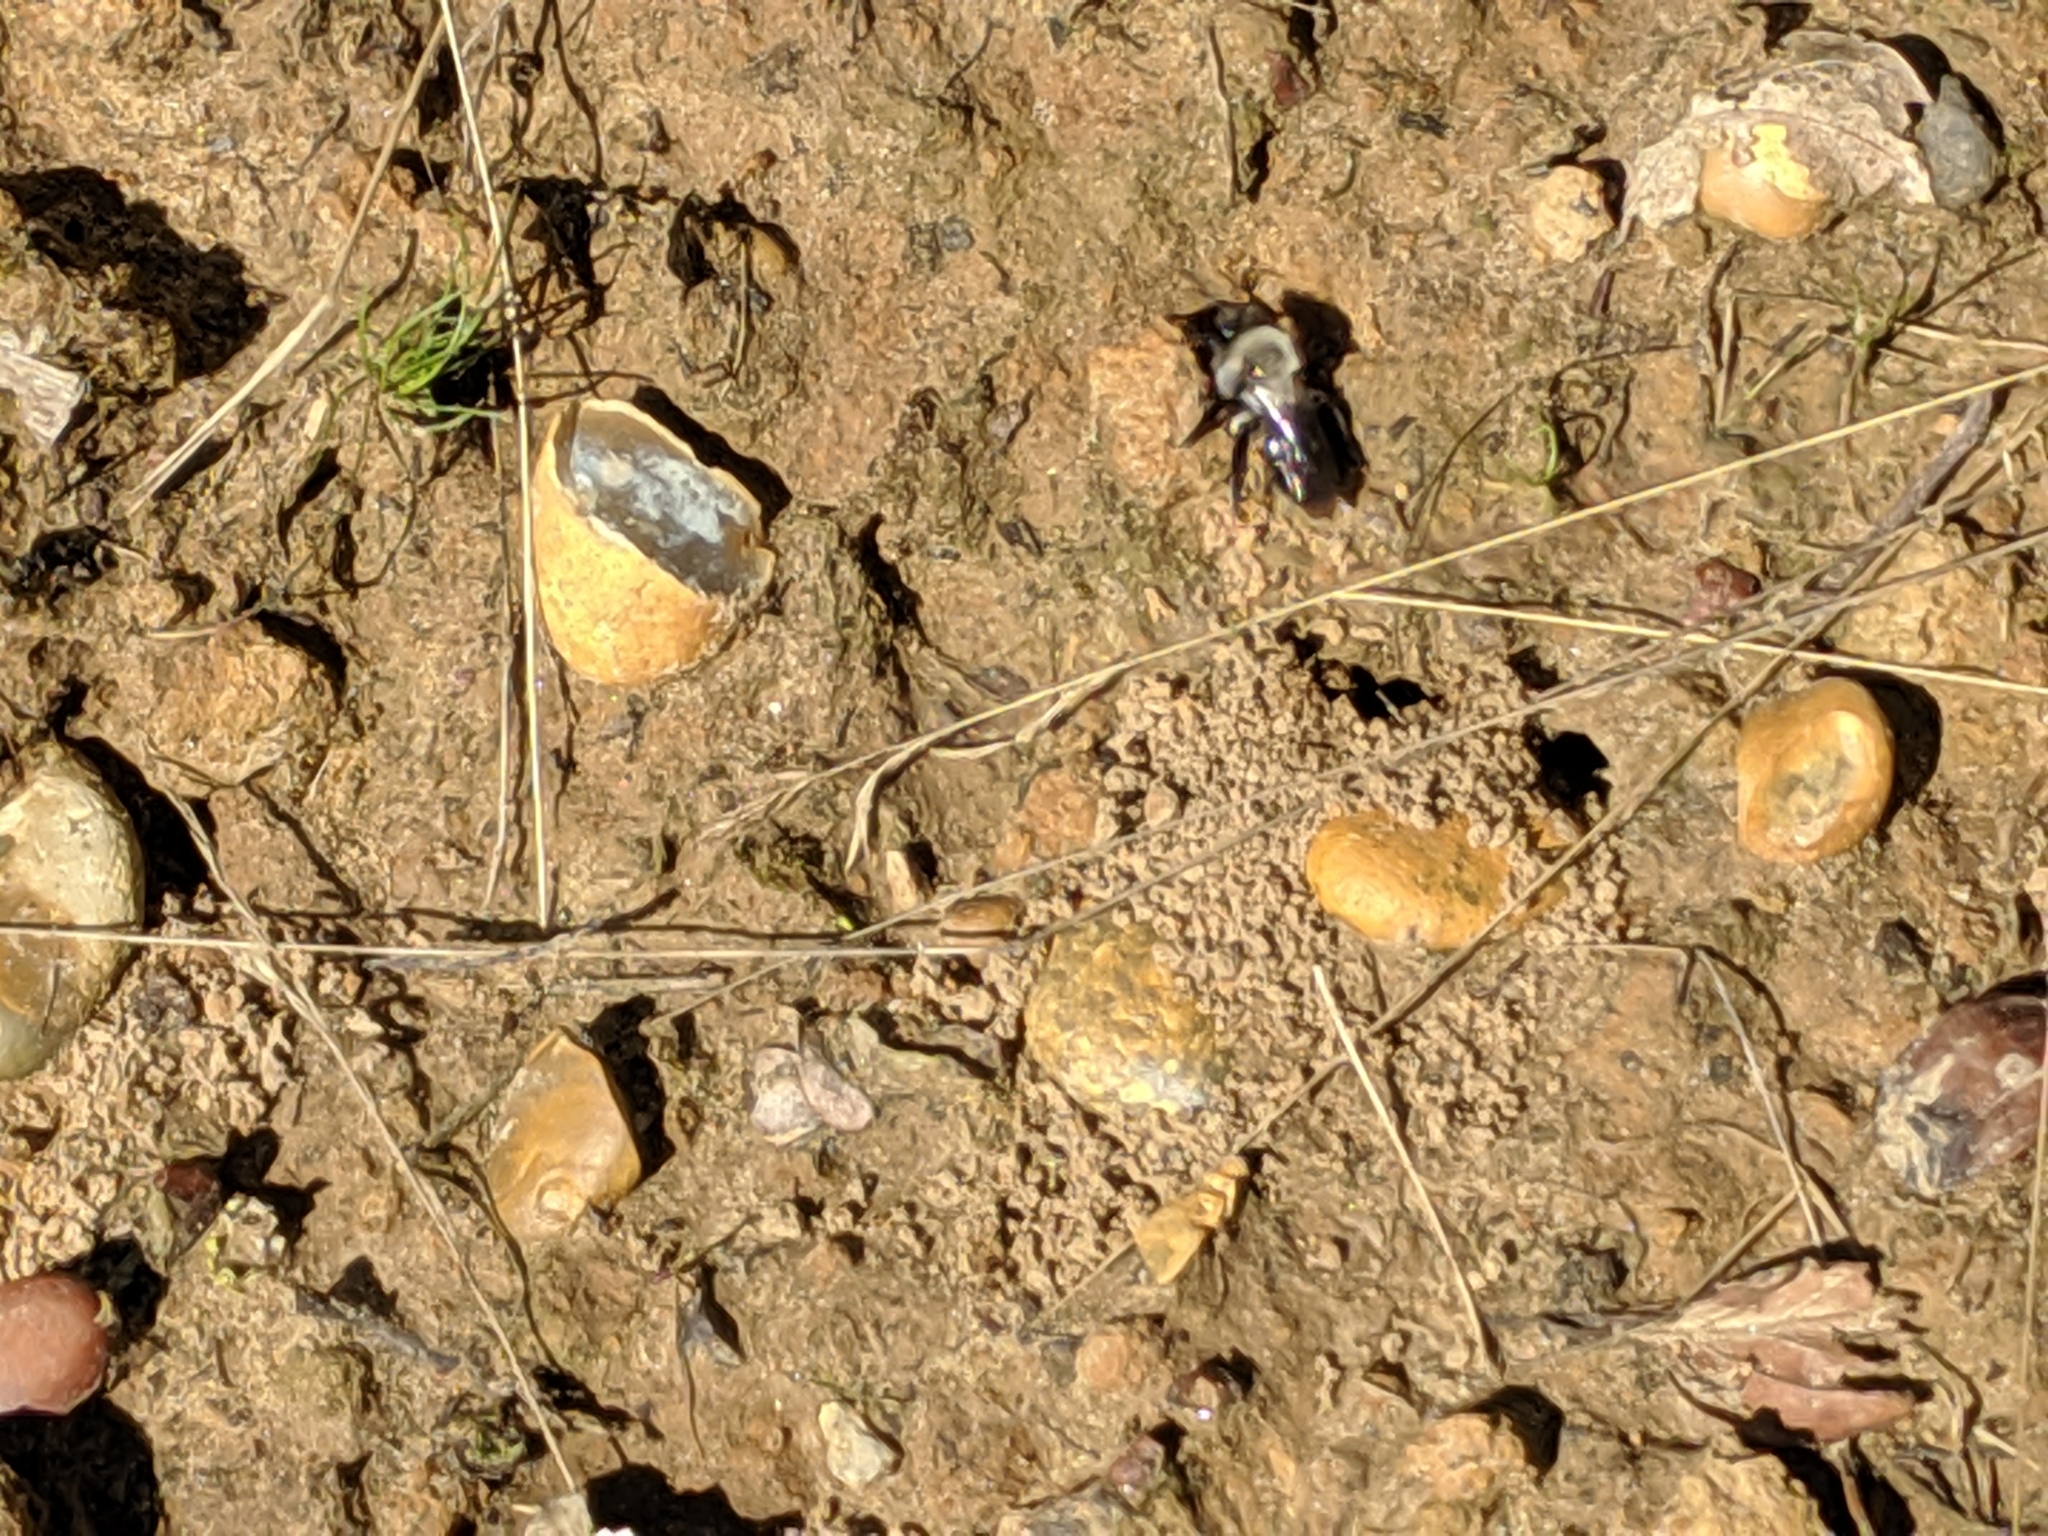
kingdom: Animalia
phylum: Arthropoda
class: Insecta
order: Hymenoptera
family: Andrenidae
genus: Andrena
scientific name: Andrena vaga
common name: Grey-backed mining bee
